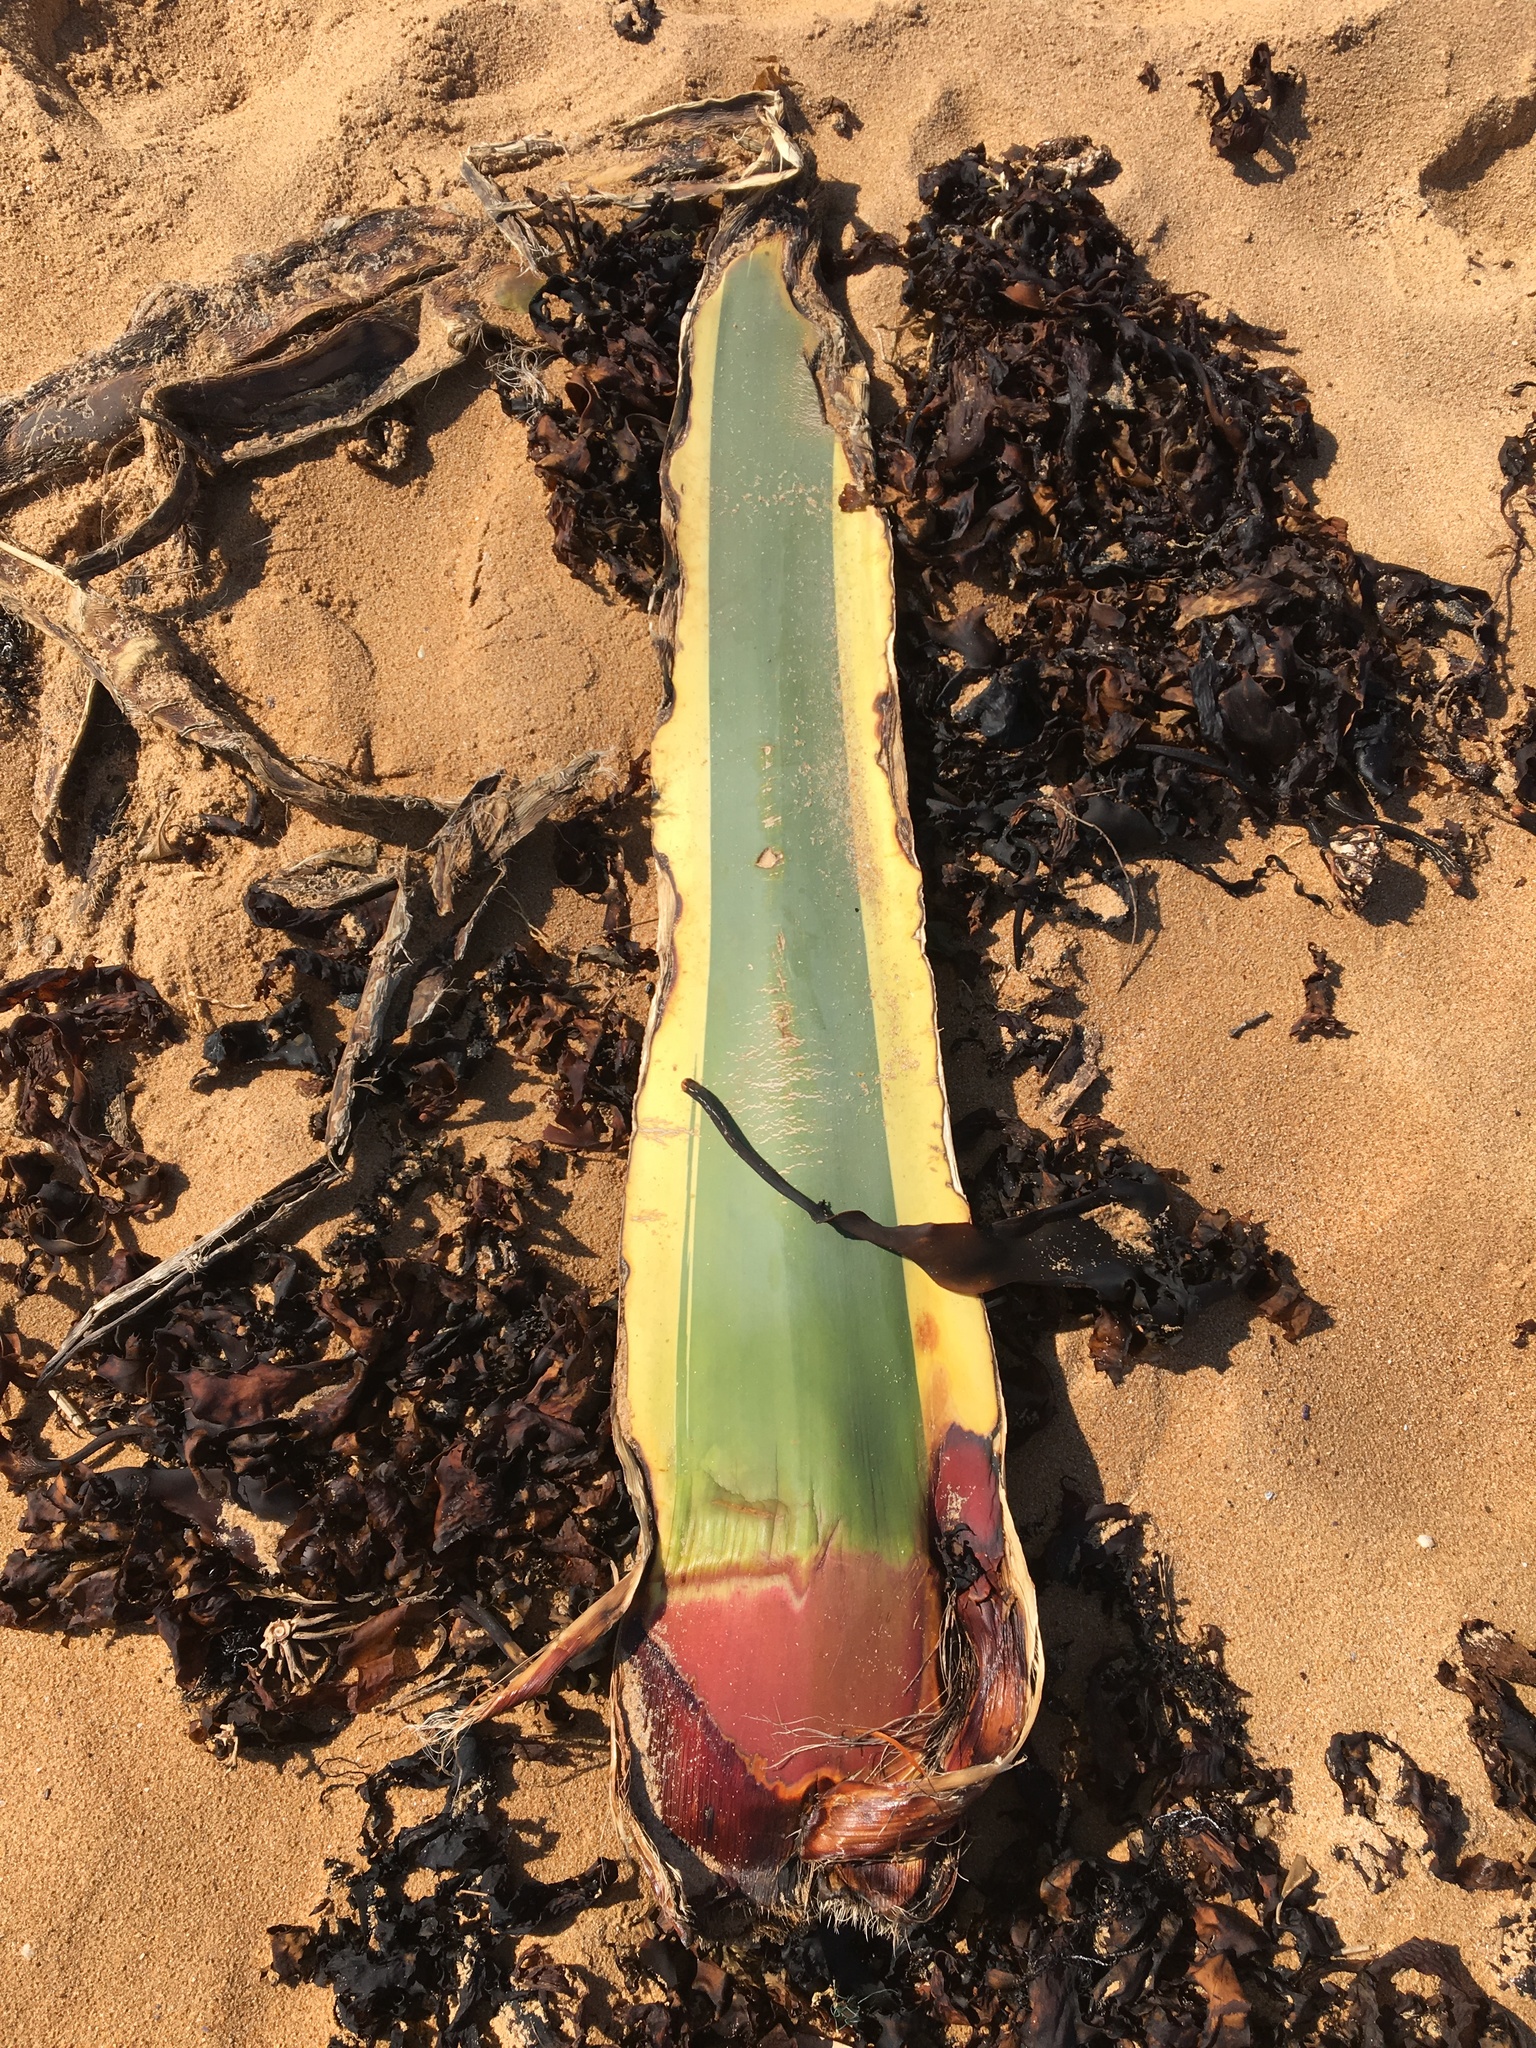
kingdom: Plantae
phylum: Tracheophyta
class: Liliopsida
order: Asparagales
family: Asparagaceae
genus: Agave
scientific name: Agave americana
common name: Centuryplant
